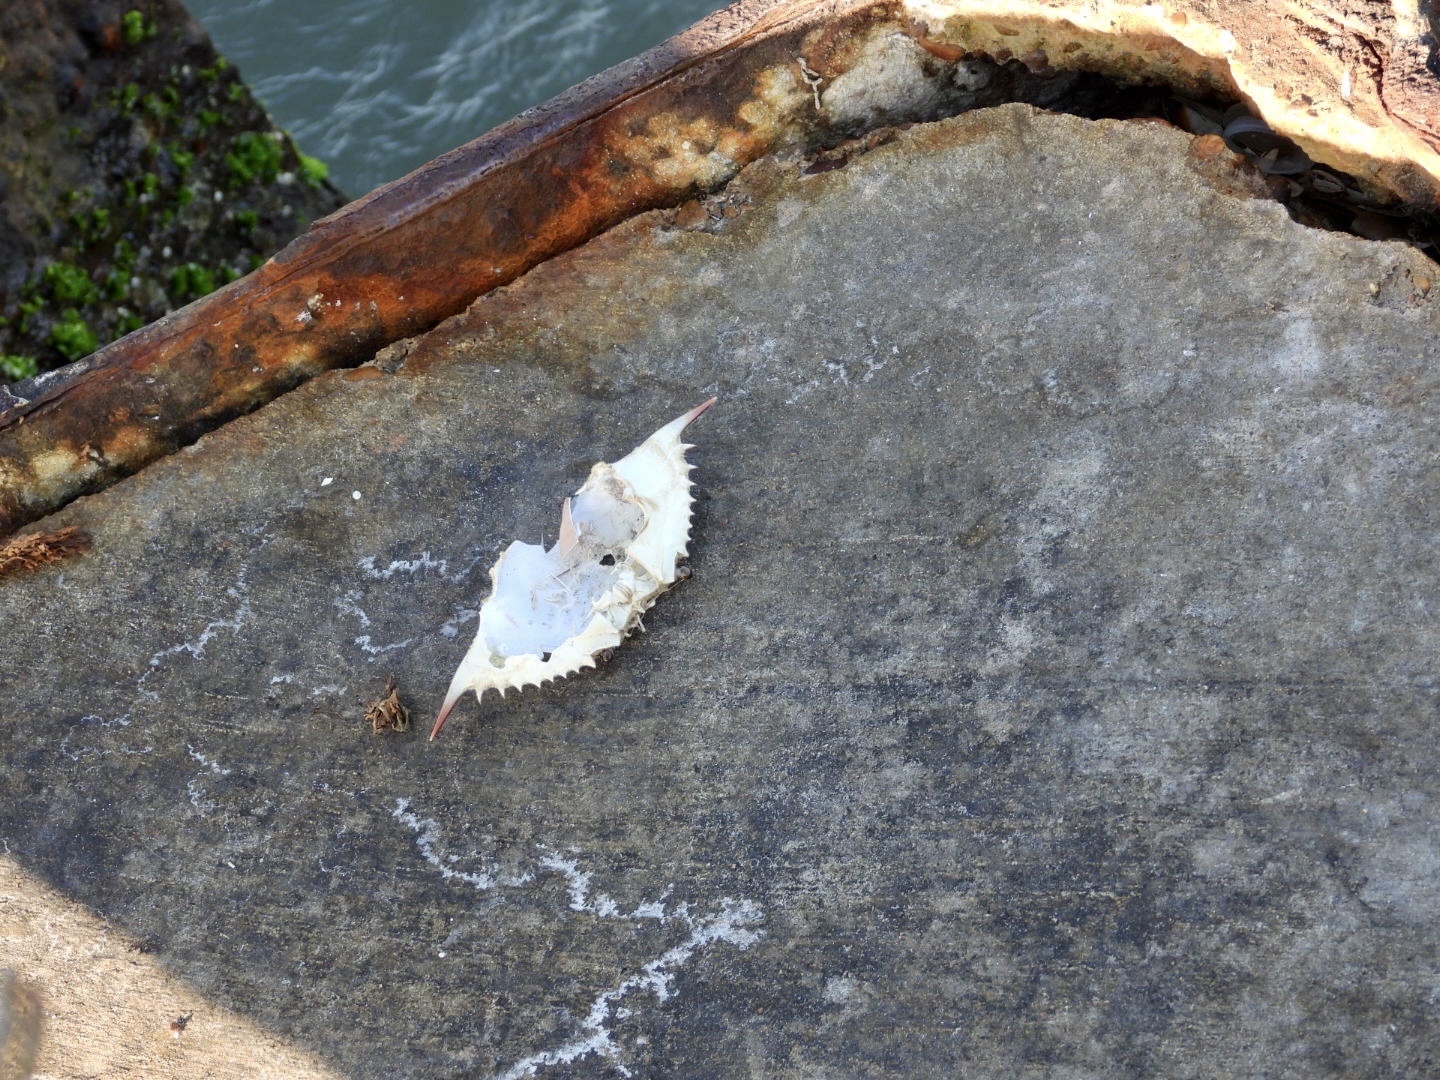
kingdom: Animalia
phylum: Arthropoda
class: Malacostraca
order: Decapoda
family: Portunidae
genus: Callinectes
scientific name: Callinectes sapidus
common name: Blue crab
